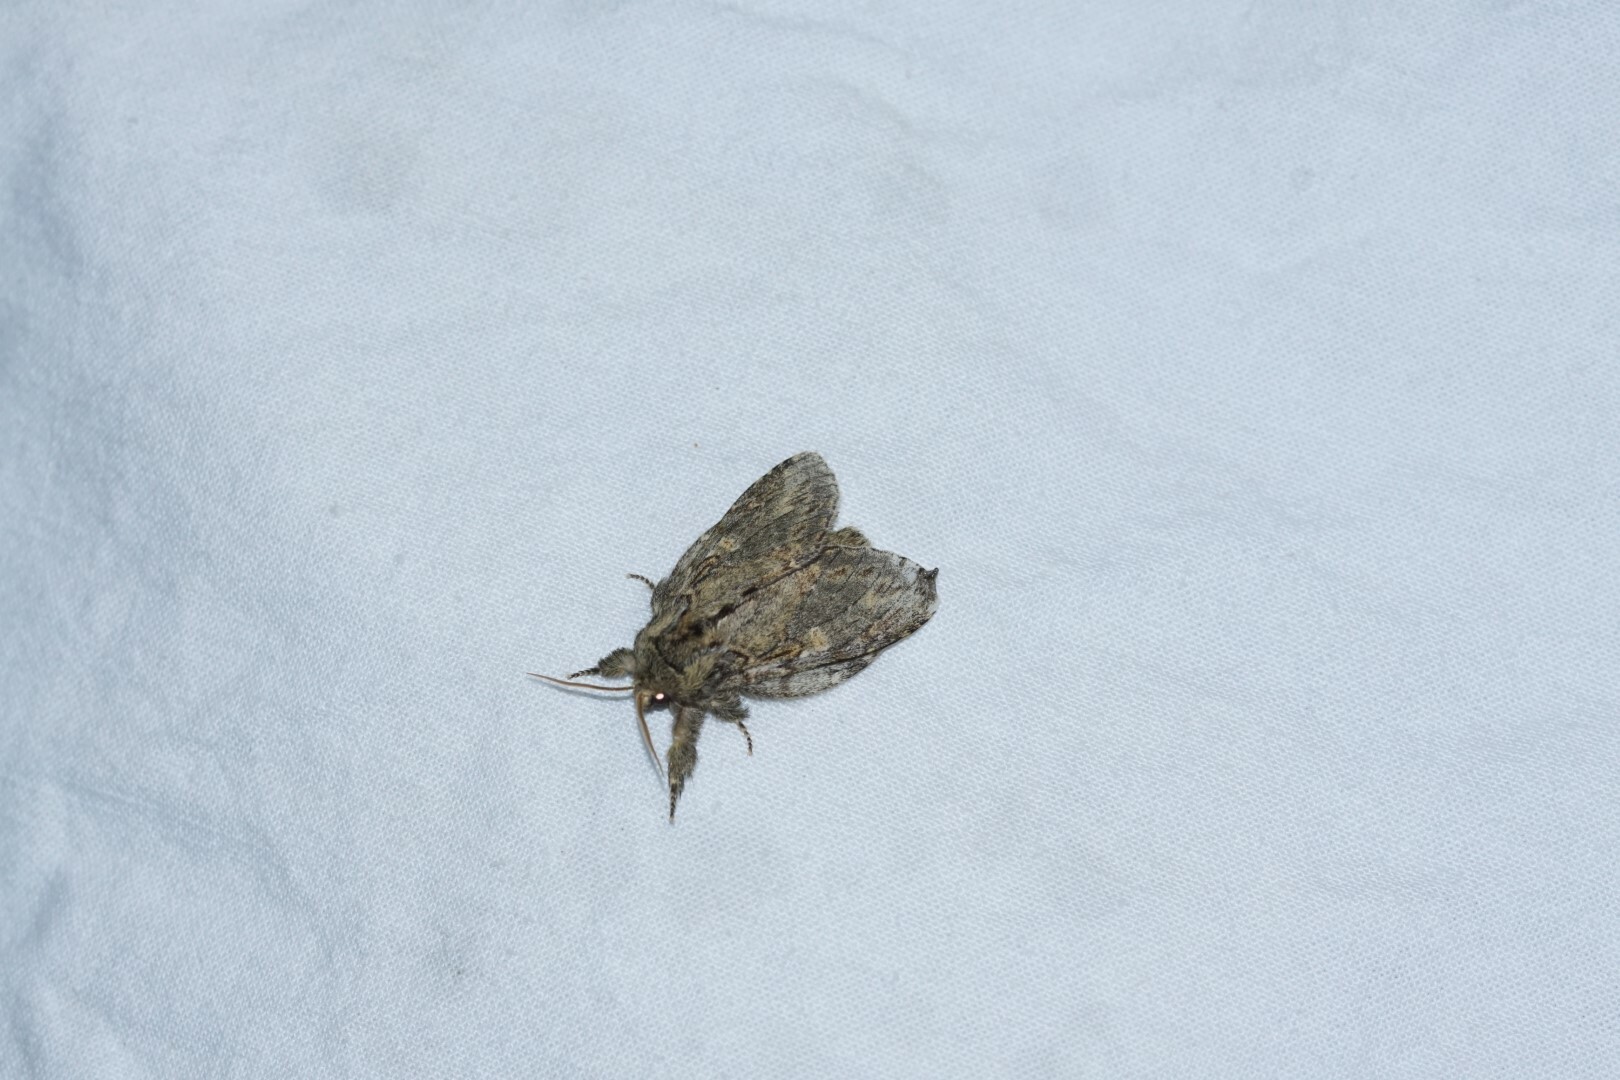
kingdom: Animalia
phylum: Arthropoda
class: Insecta
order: Lepidoptera
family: Notodontidae
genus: Peridea
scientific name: Peridea anceps
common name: Great prominent
